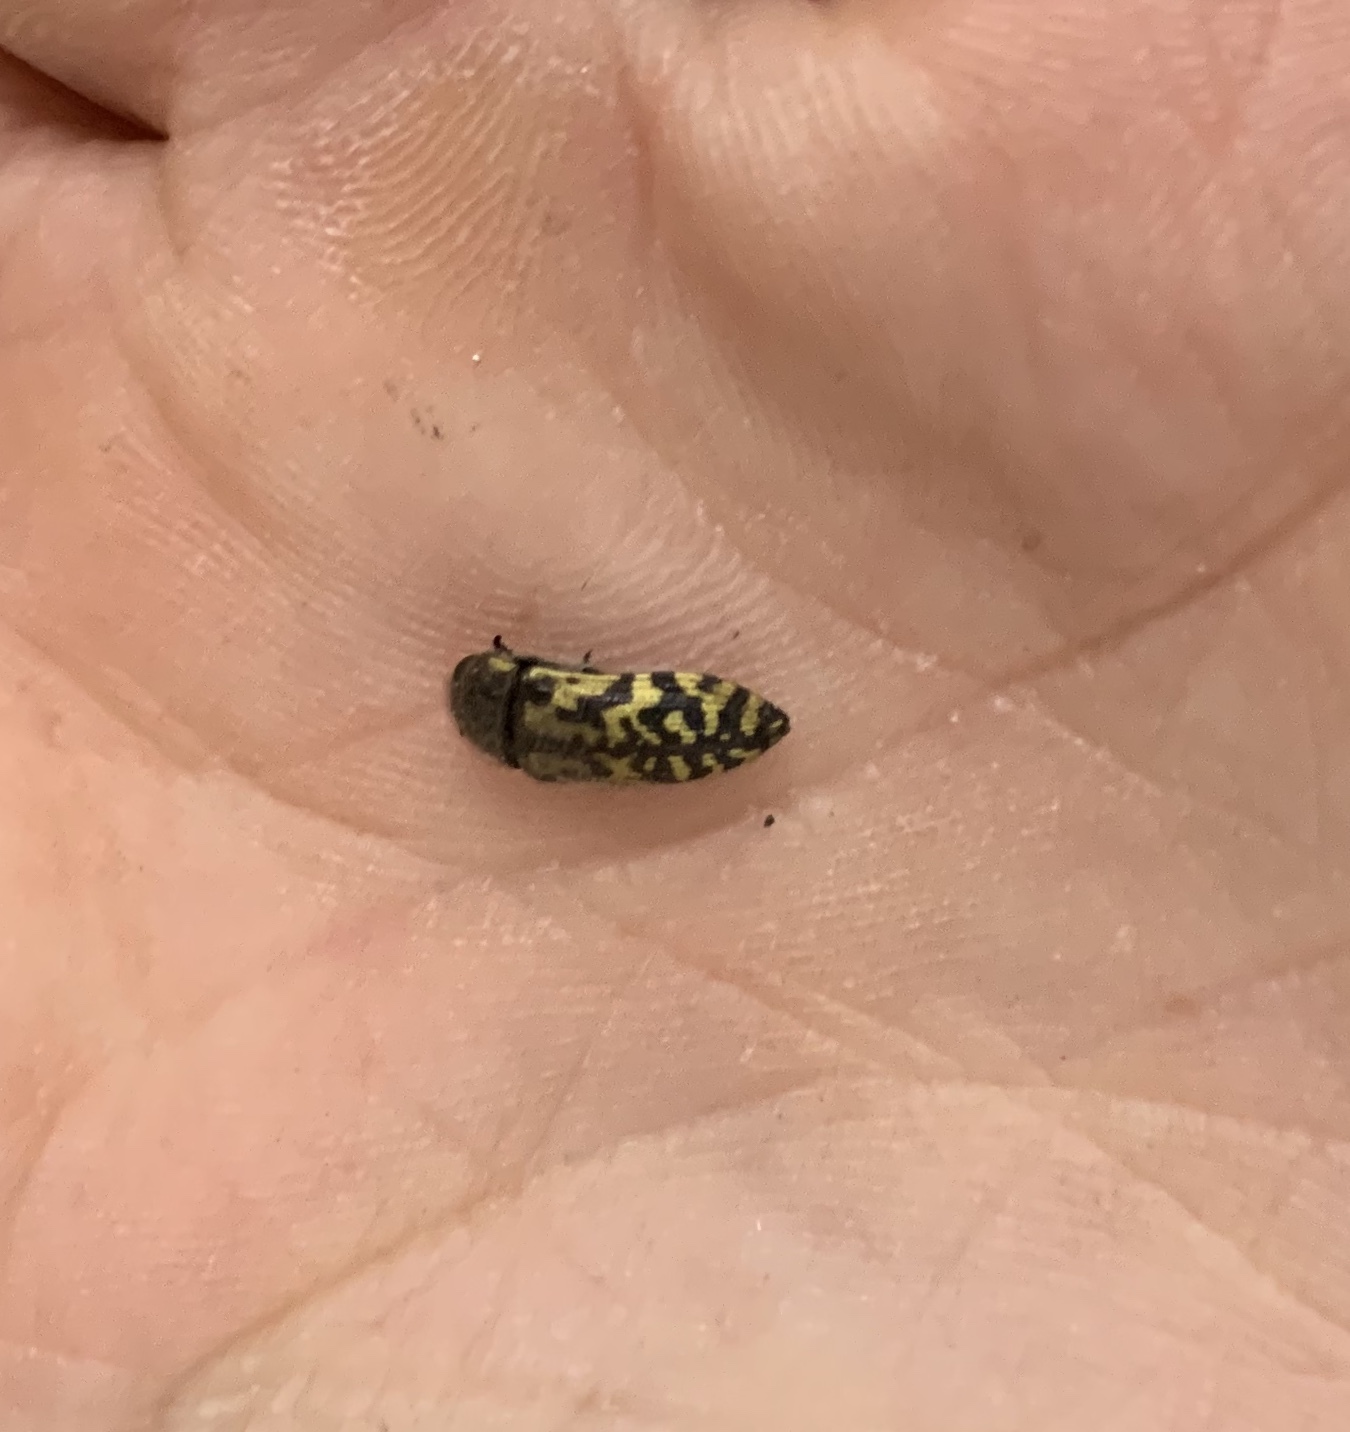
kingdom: Animalia
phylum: Arthropoda
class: Insecta
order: Coleoptera
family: Buprestidae
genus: Acmaeodera
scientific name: Acmaeodera mixta
